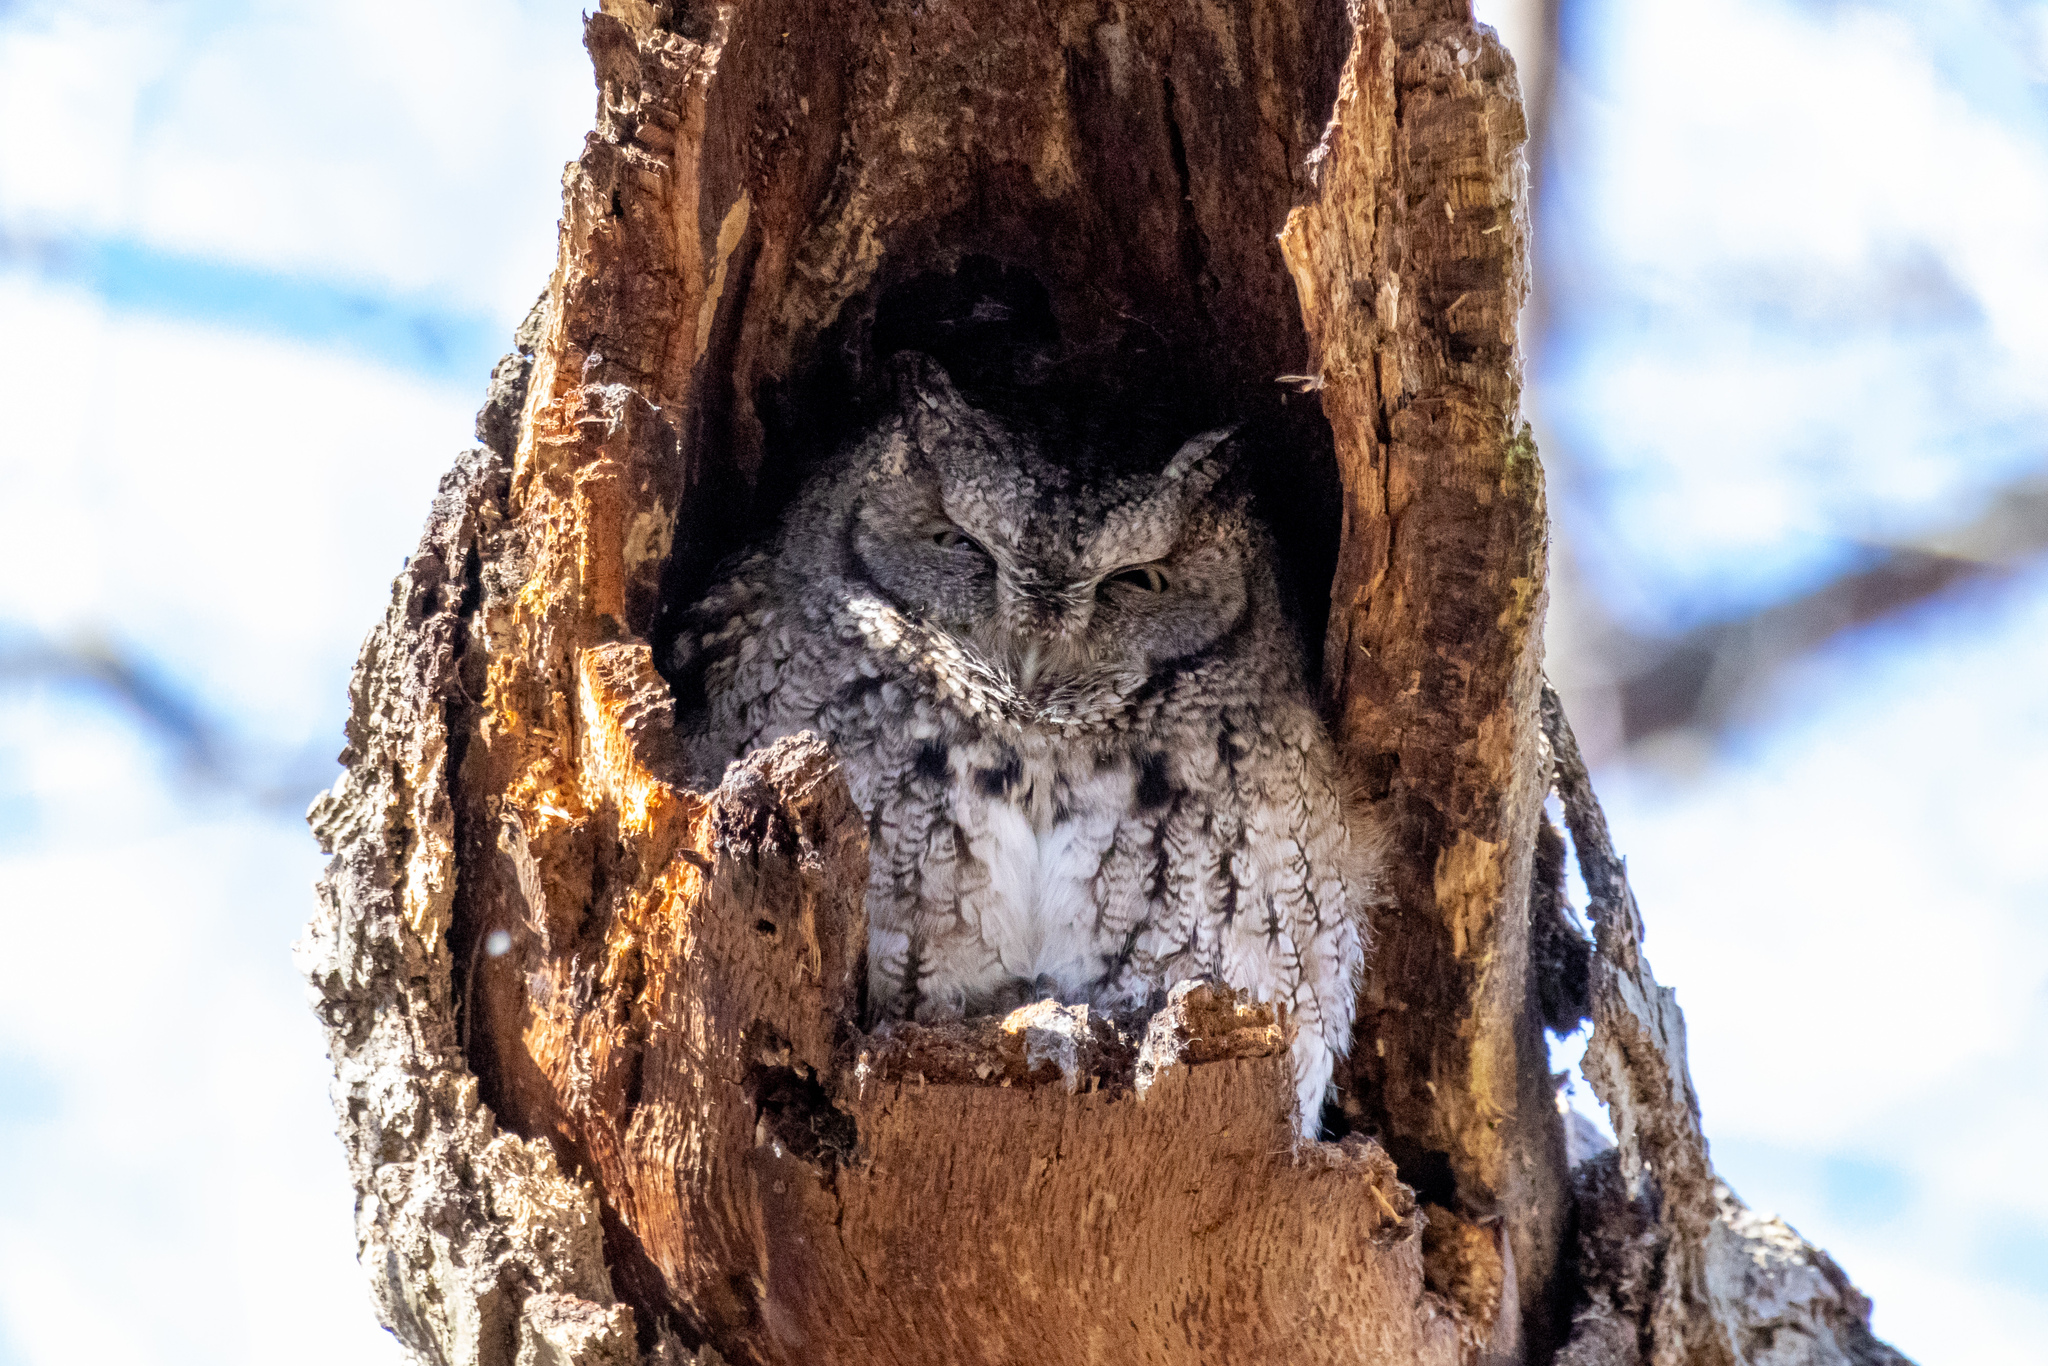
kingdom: Animalia
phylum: Chordata
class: Aves
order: Strigiformes
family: Strigidae
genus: Megascops
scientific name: Megascops asio
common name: Eastern screech-owl
